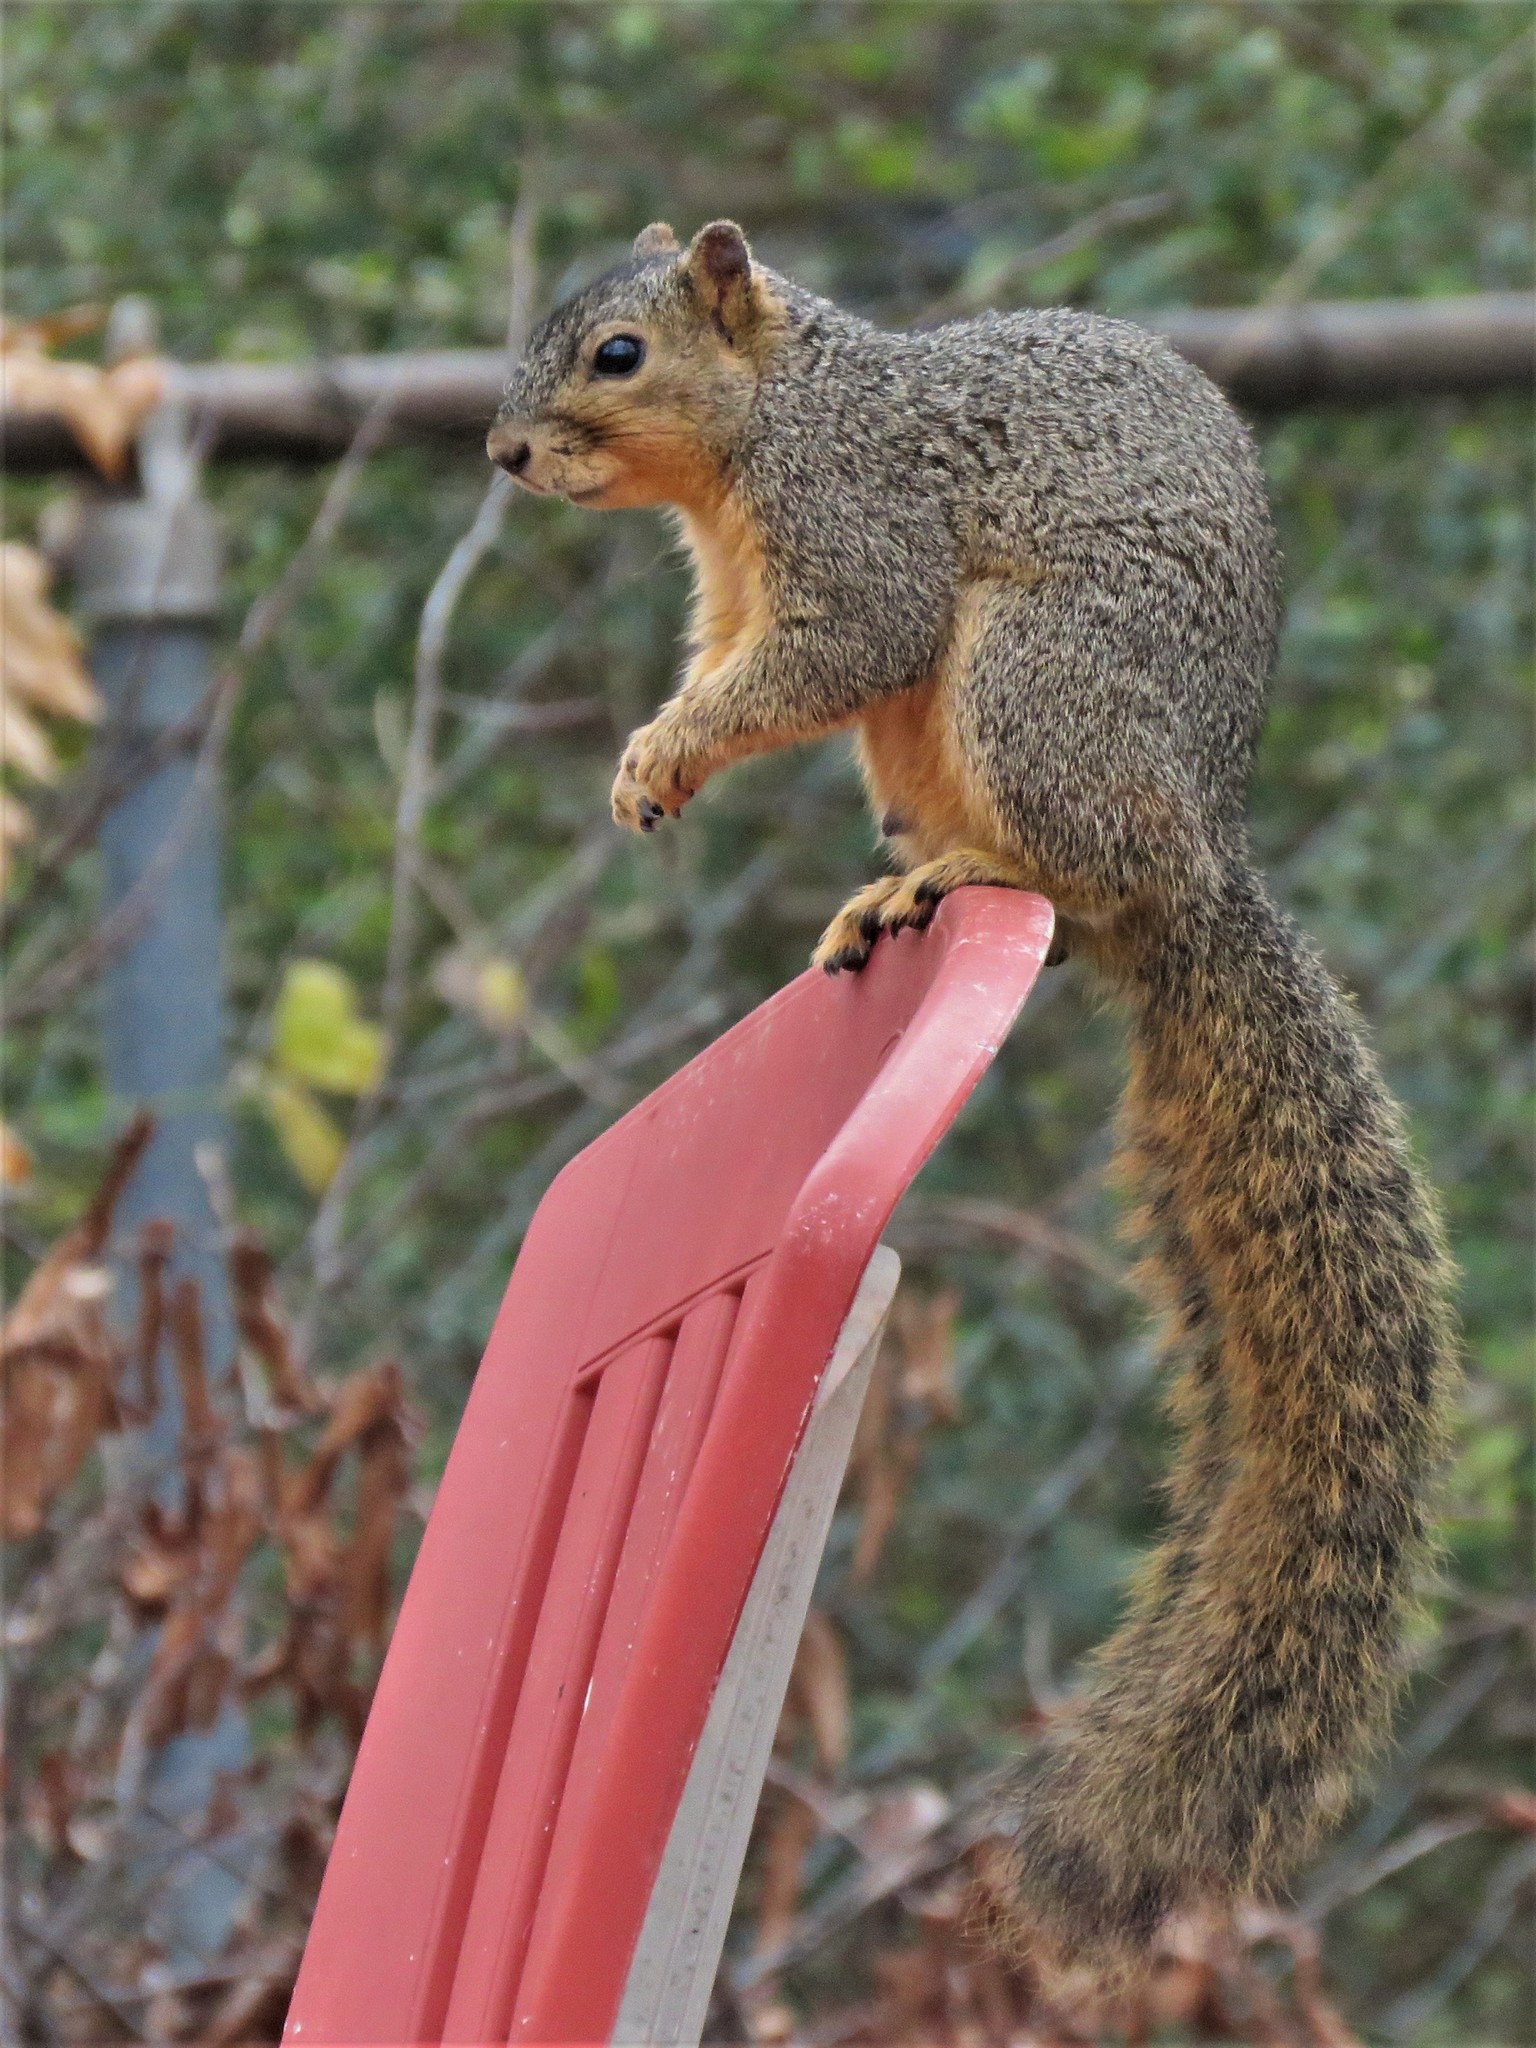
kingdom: Animalia
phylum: Chordata
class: Mammalia
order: Rodentia
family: Sciuridae
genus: Sciurus
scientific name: Sciurus niger
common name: Fox squirrel
